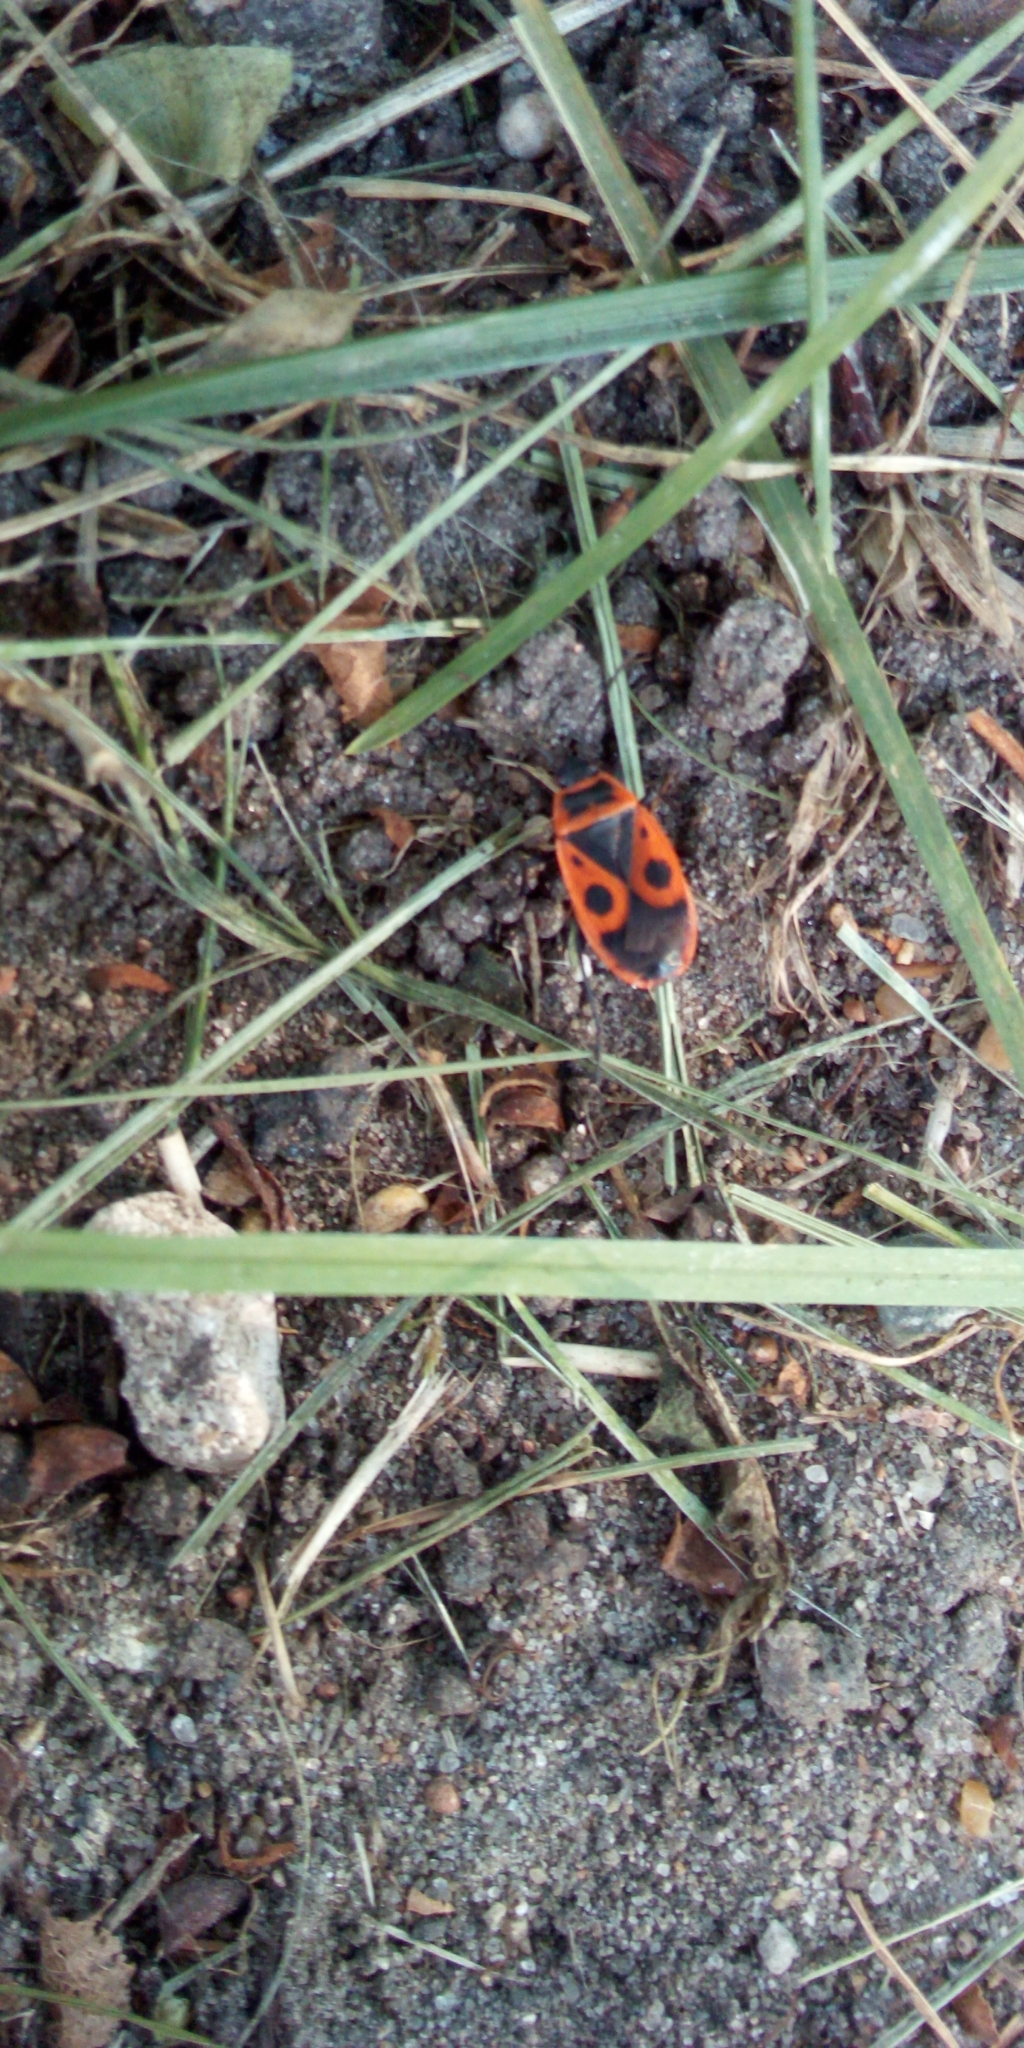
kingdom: Animalia
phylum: Arthropoda
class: Insecta
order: Hemiptera
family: Pyrrhocoridae
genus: Pyrrhocoris
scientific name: Pyrrhocoris apterus
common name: Firebug
